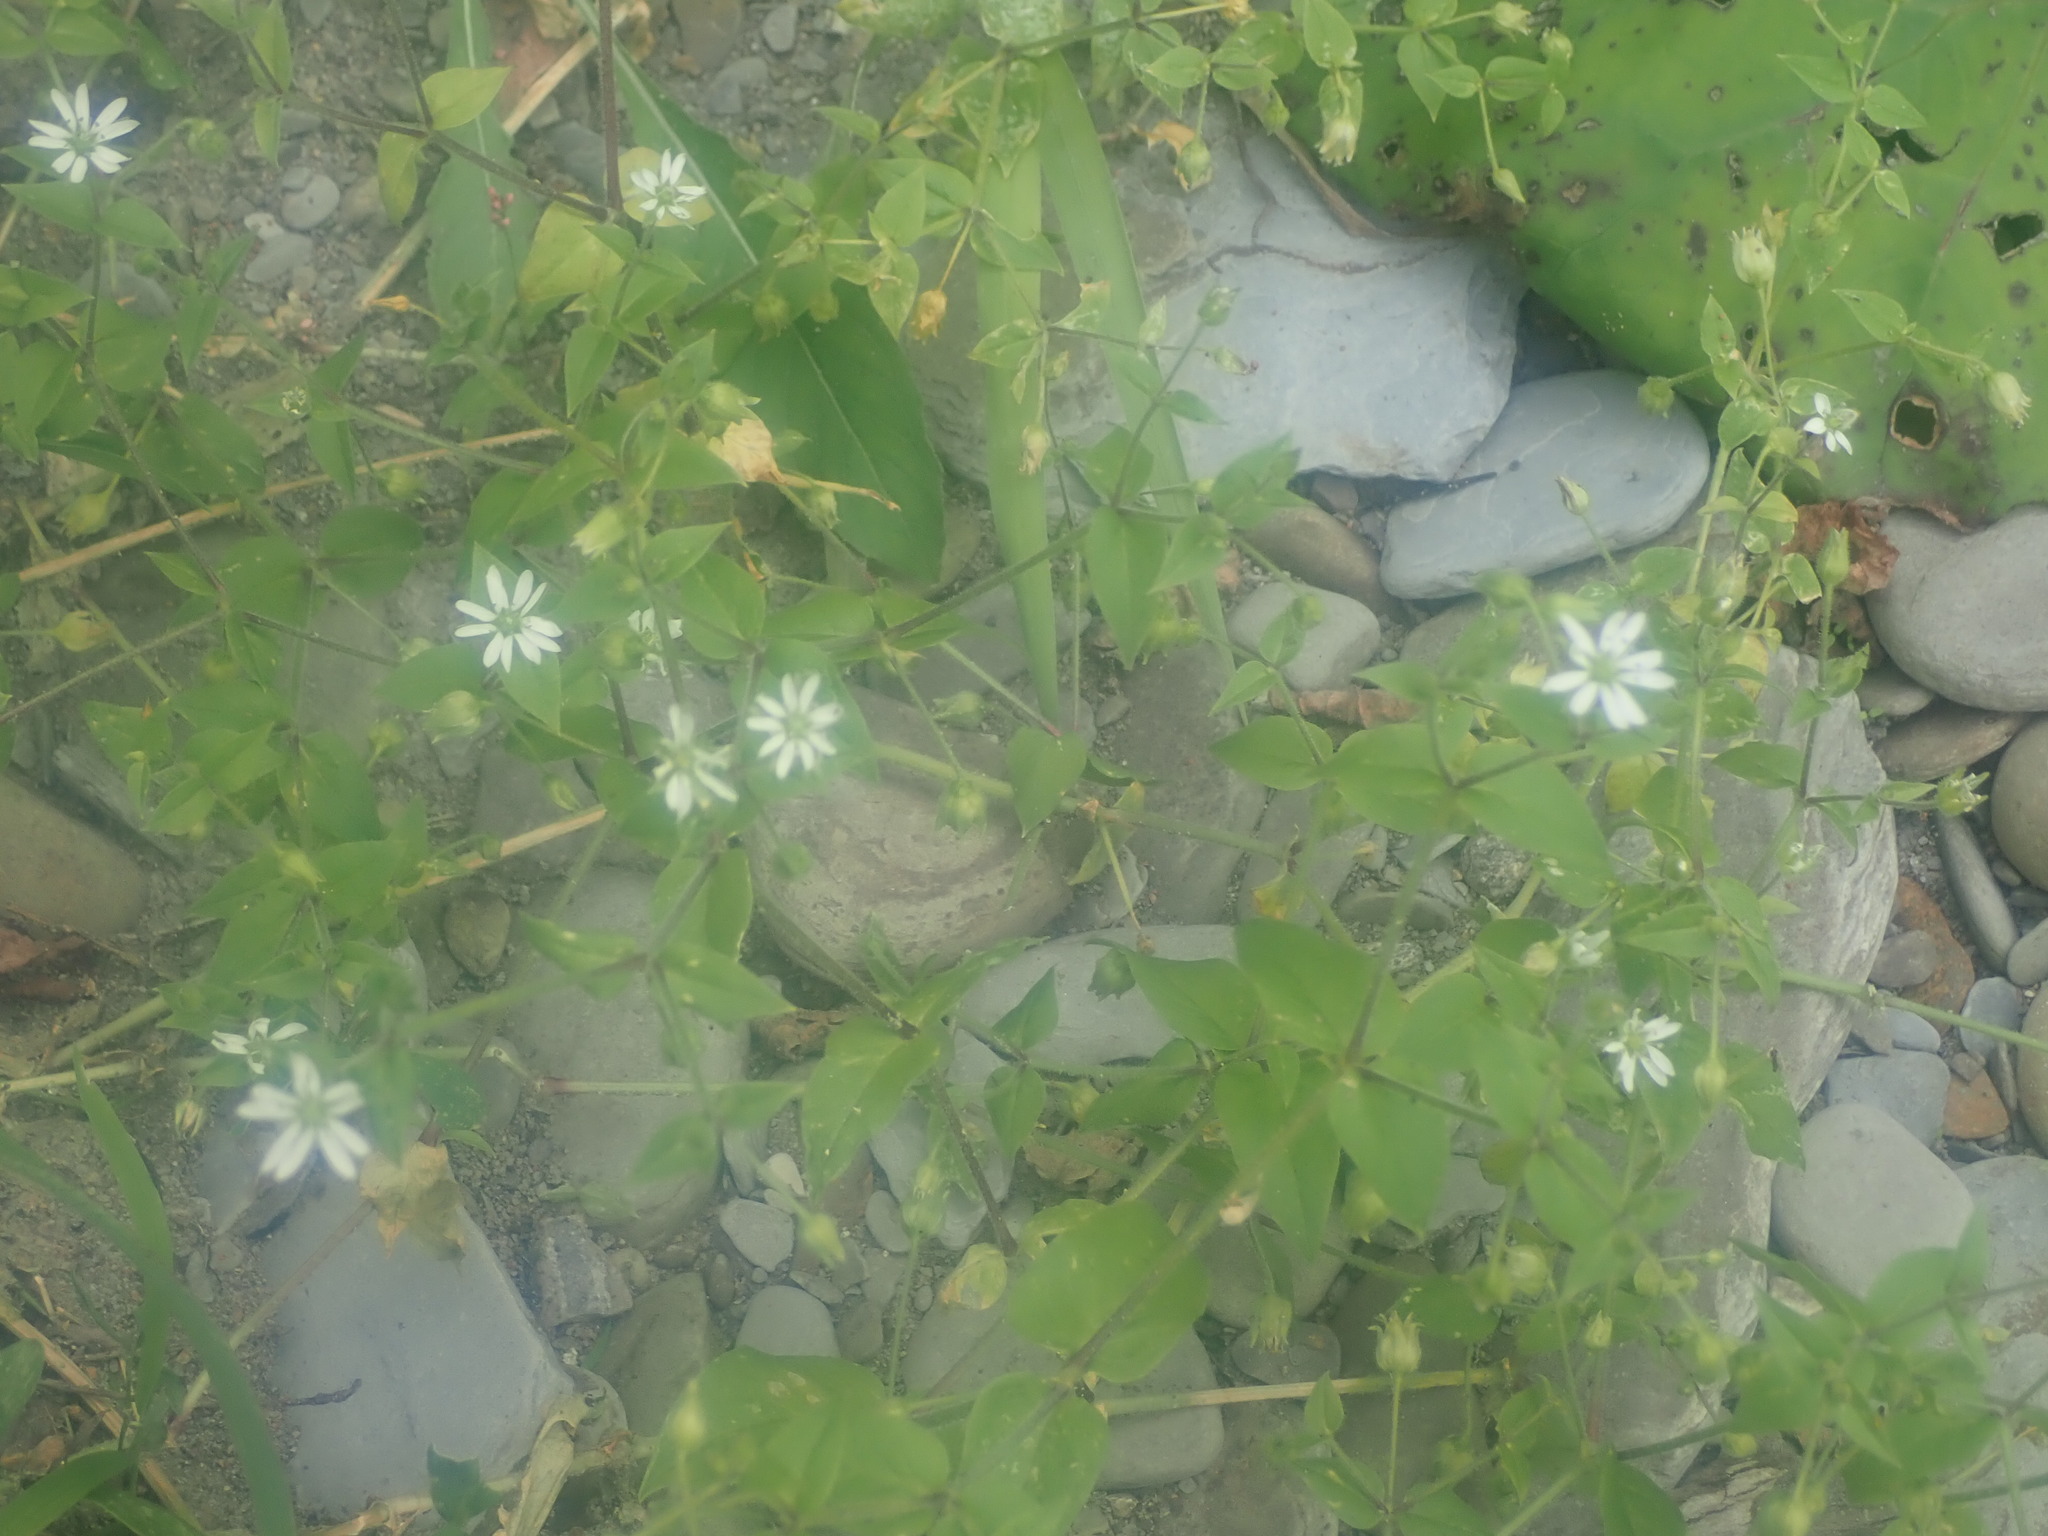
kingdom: Plantae
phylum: Tracheophyta
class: Magnoliopsida
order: Caryophyllales
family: Caryophyllaceae
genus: Stellaria
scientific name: Stellaria aquatica
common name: Water chickweed
